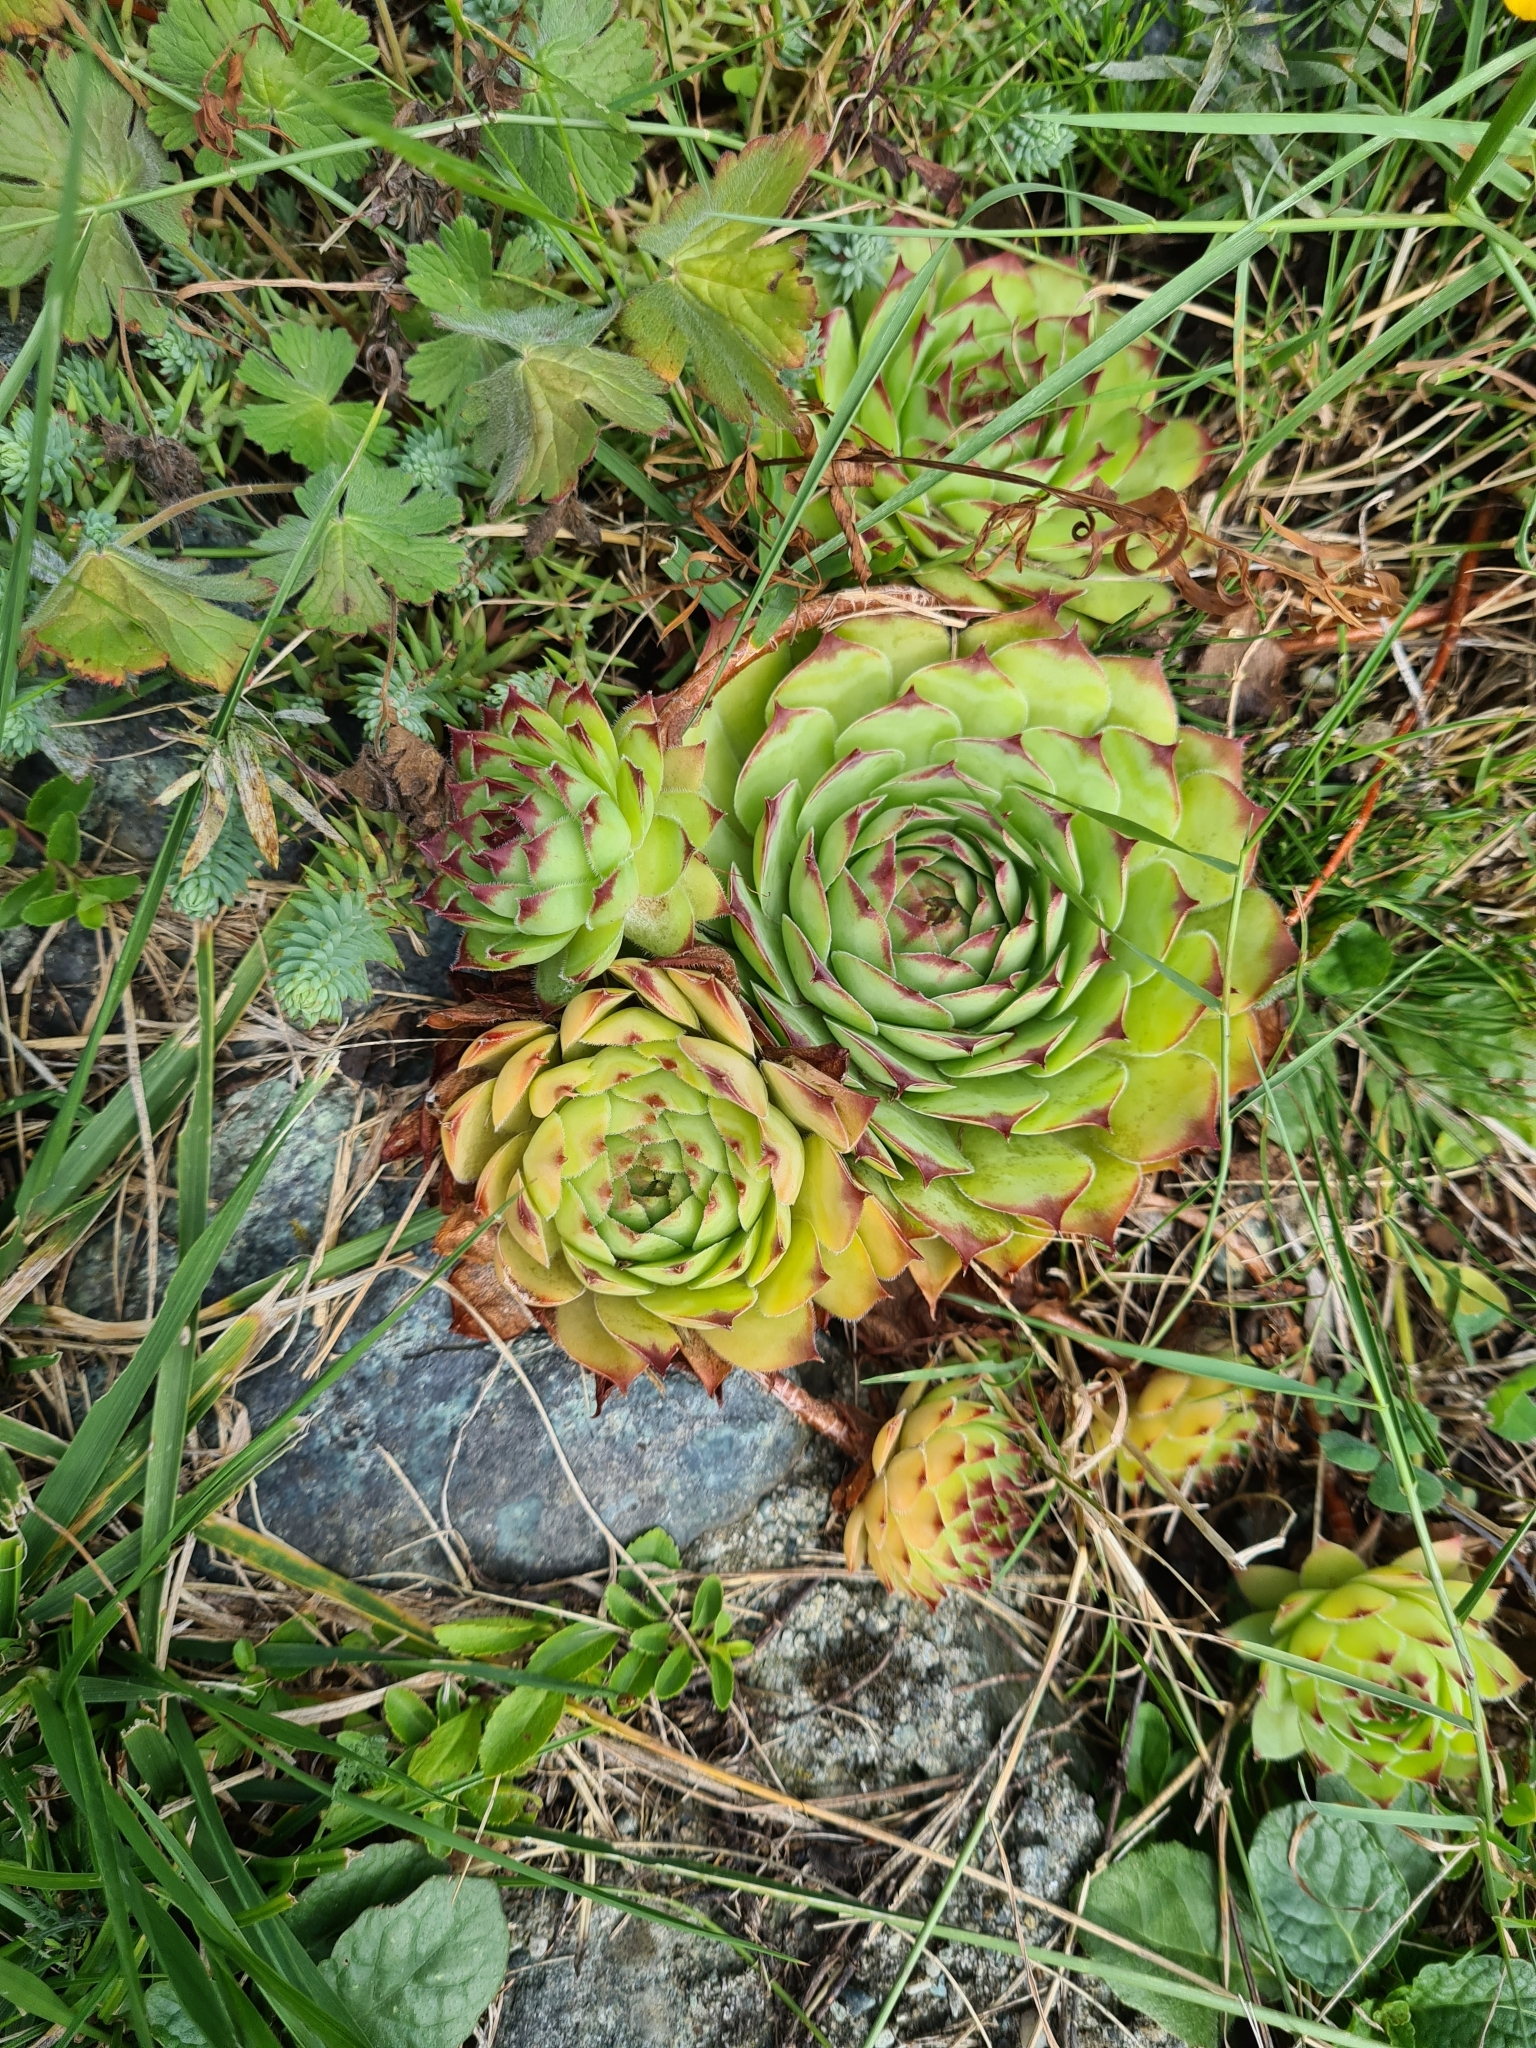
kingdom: Plantae
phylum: Tracheophyta
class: Magnoliopsida
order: Saxifragales
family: Crassulaceae
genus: Sempervivum
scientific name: Sempervivum tectorum
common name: House-leek
